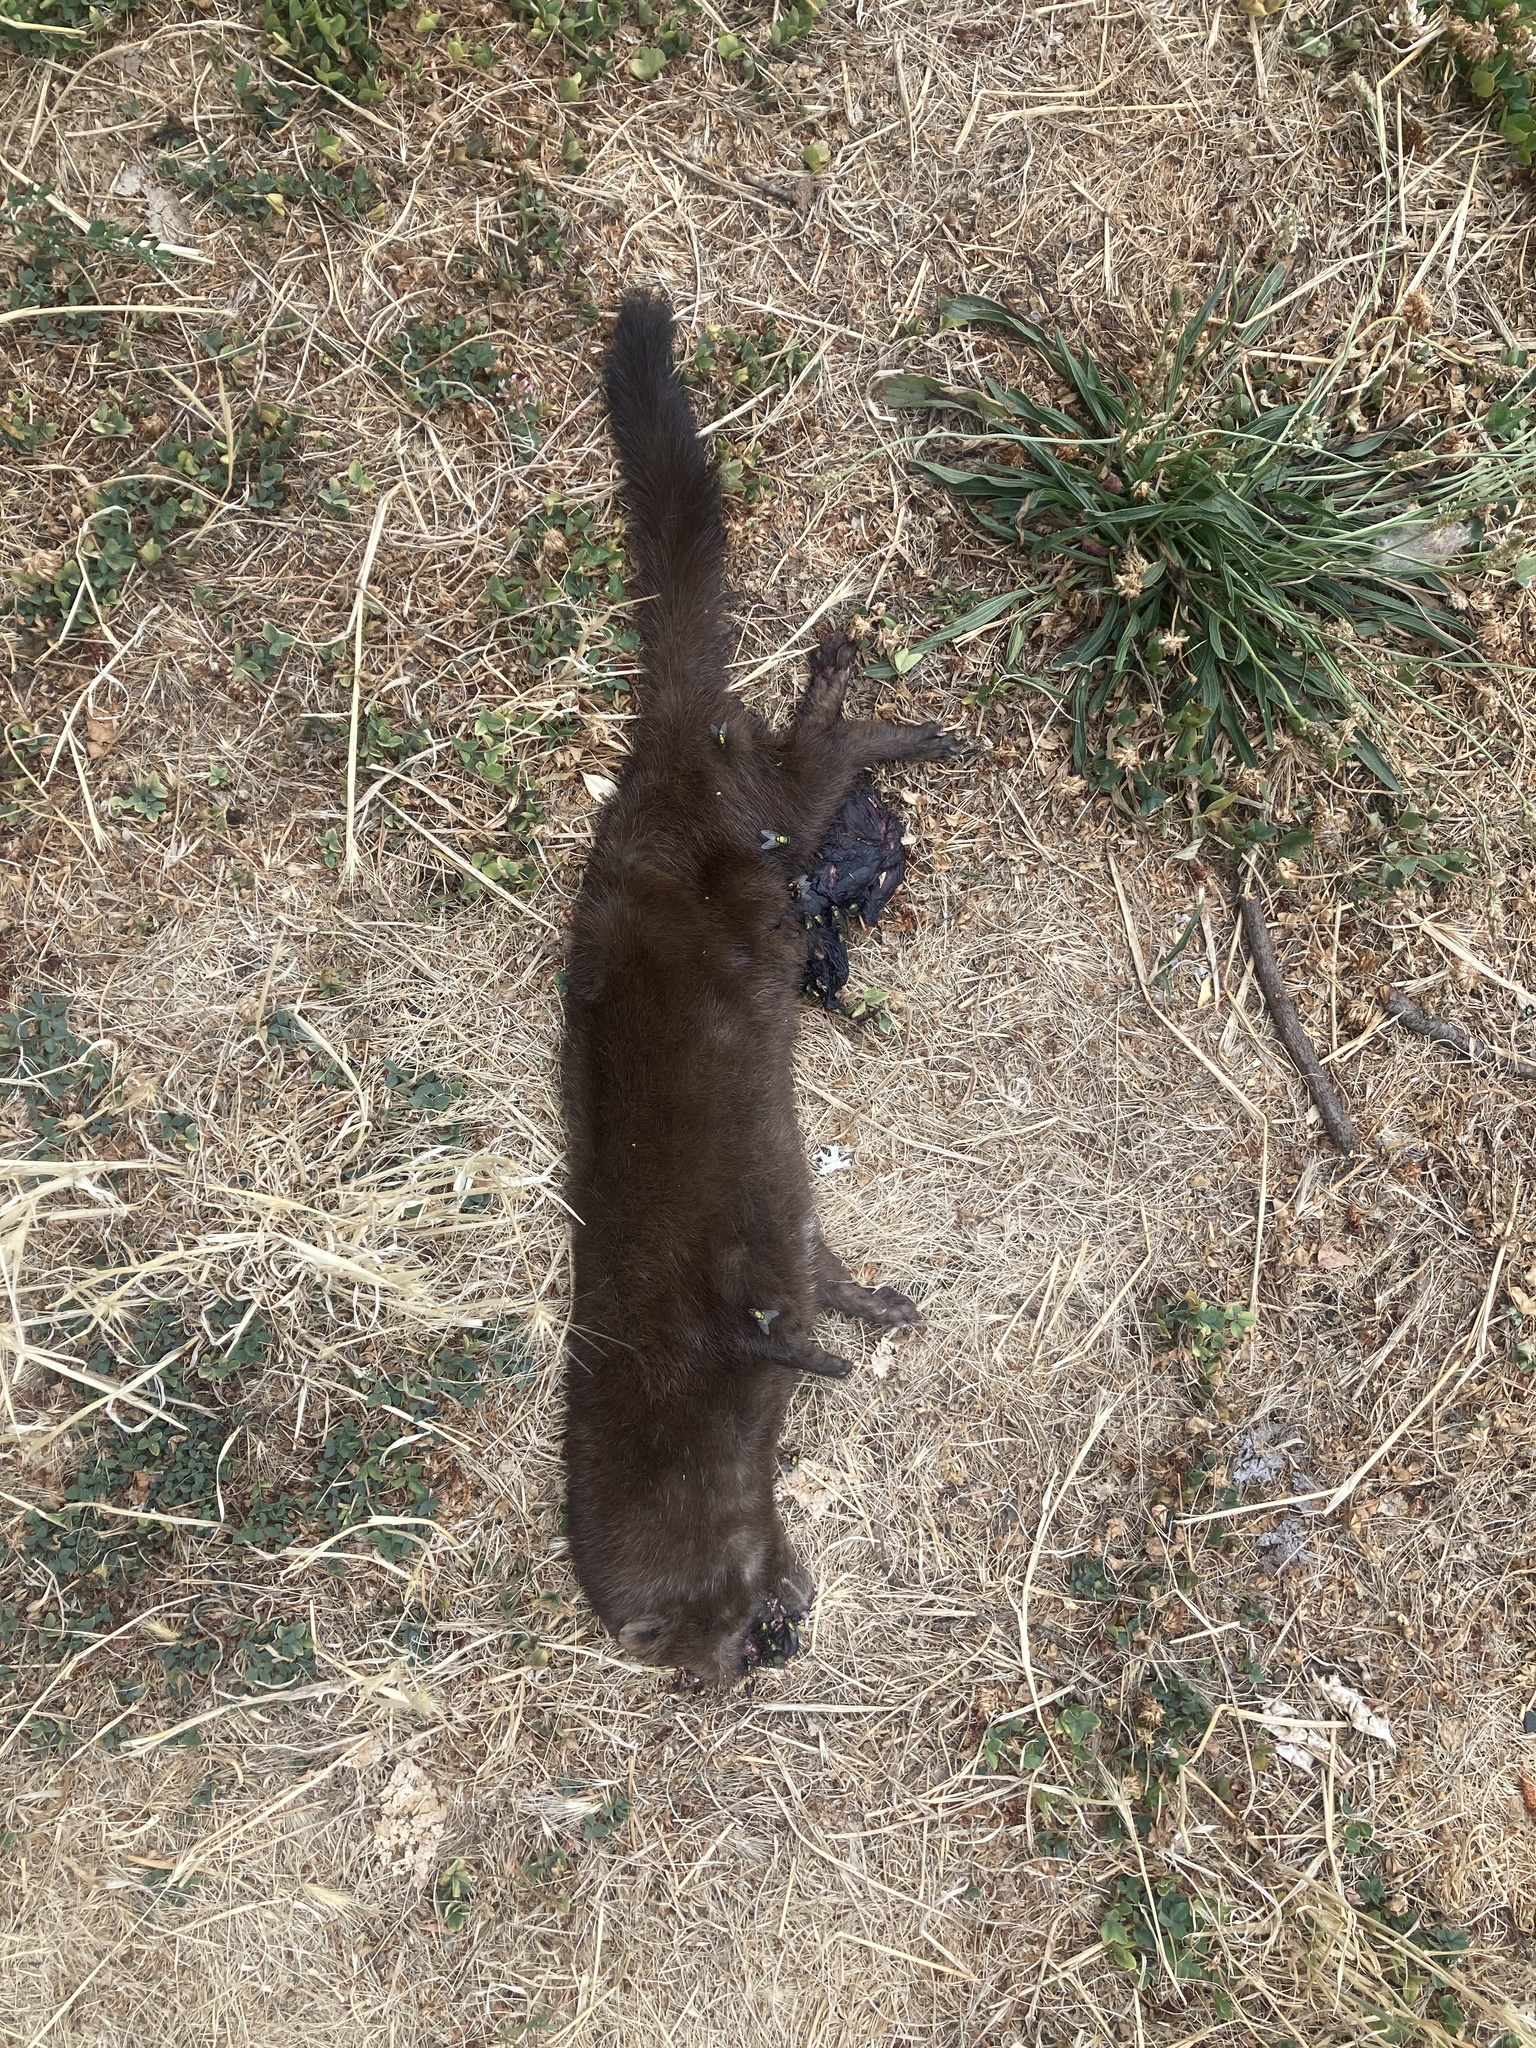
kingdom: Animalia
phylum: Chordata
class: Mammalia
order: Carnivora
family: Mustelidae
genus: Mustela
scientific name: Mustela
